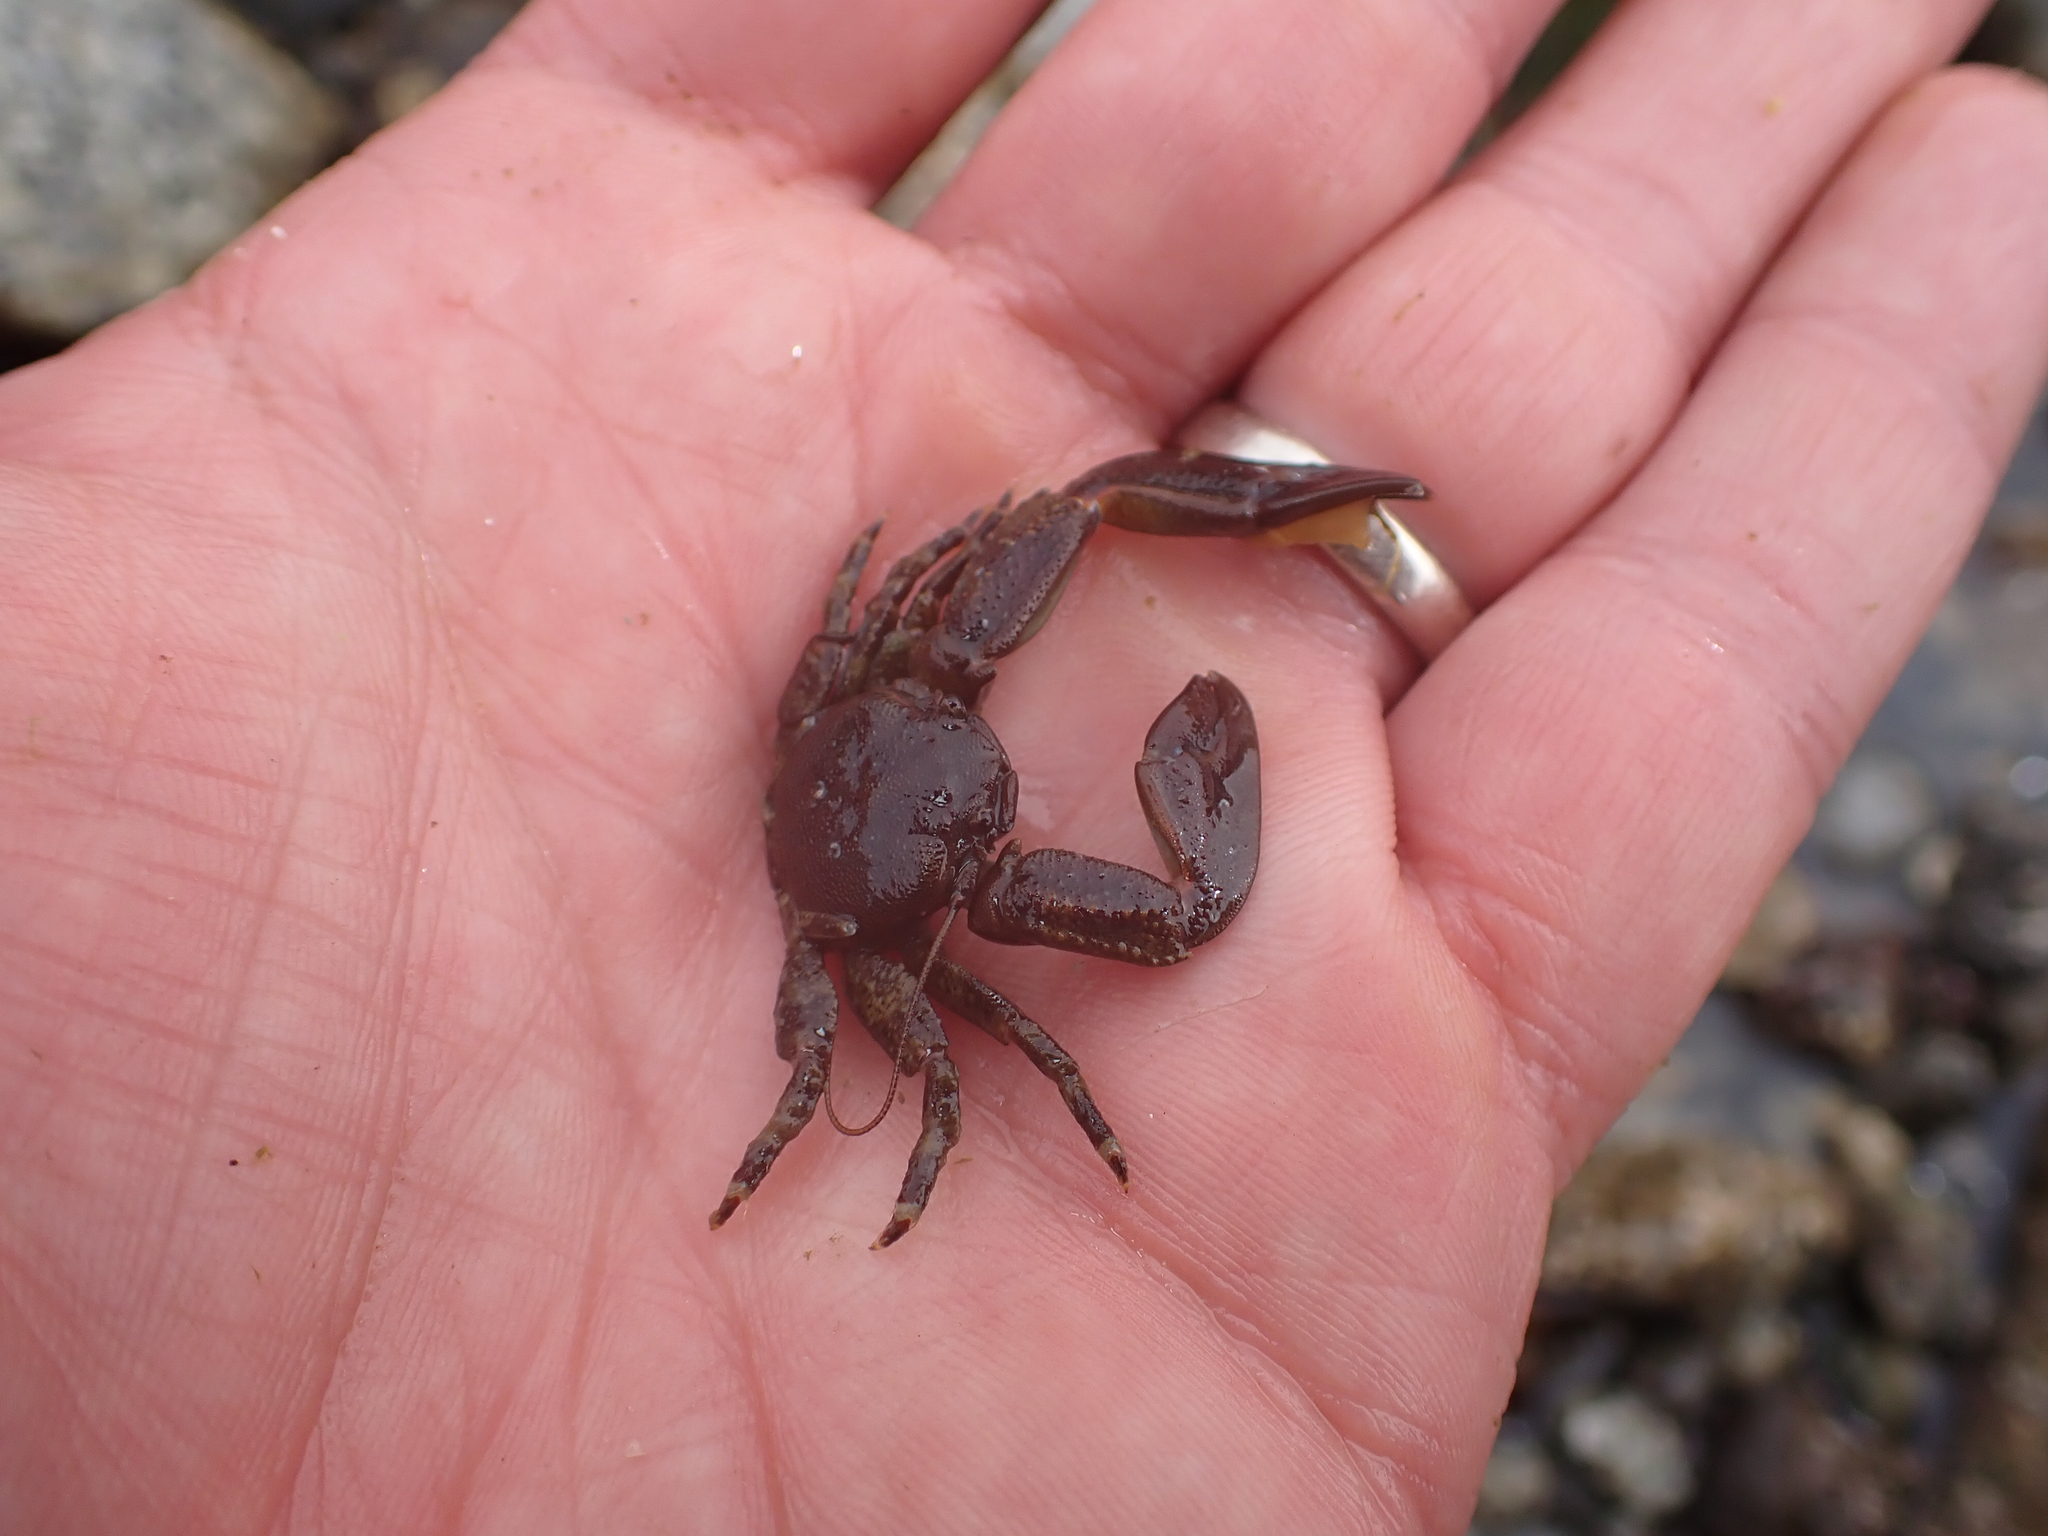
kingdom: Animalia
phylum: Arthropoda
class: Malacostraca
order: Decapoda
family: Porcellanidae
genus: Petrolisthes
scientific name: Petrolisthes eriomerus
